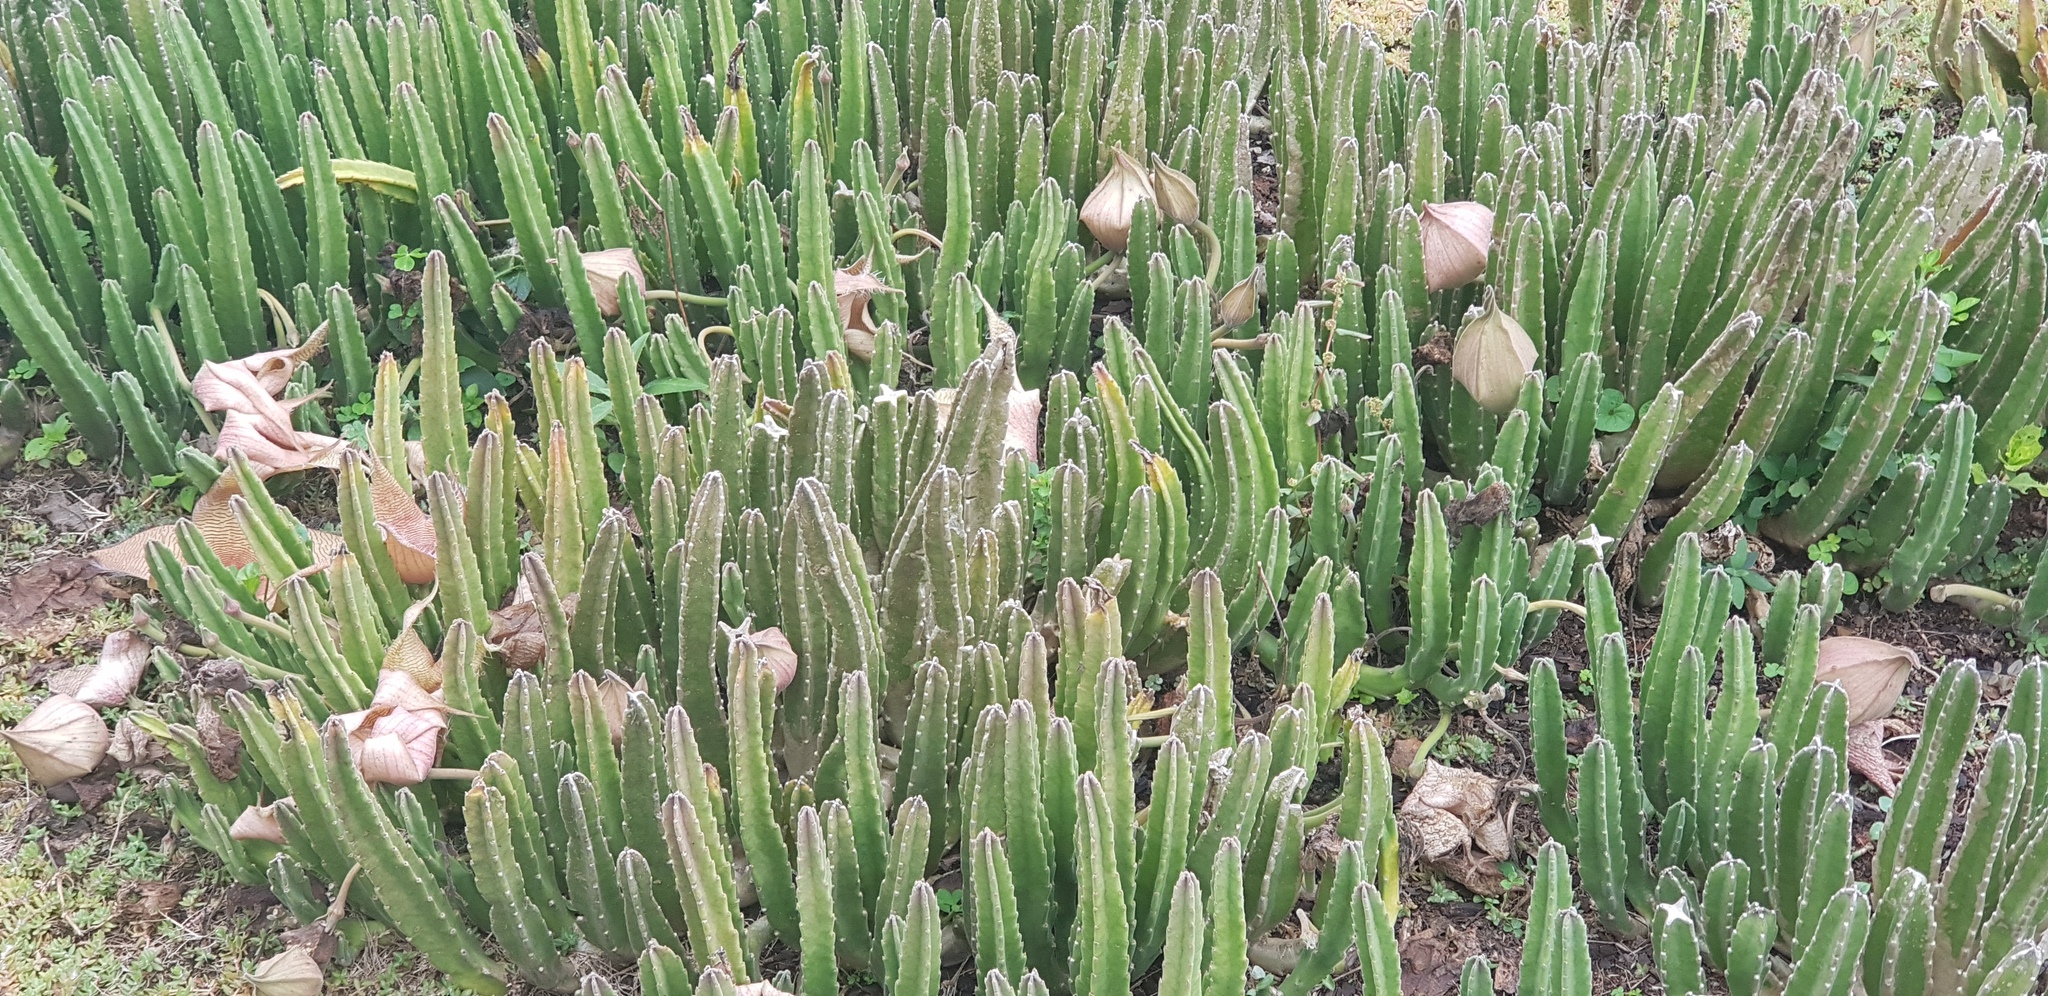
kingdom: Plantae
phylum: Tracheophyta
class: Magnoliopsida
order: Gentianales
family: Apocynaceae
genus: Ceropegia
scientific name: Ceropegia gigantea
